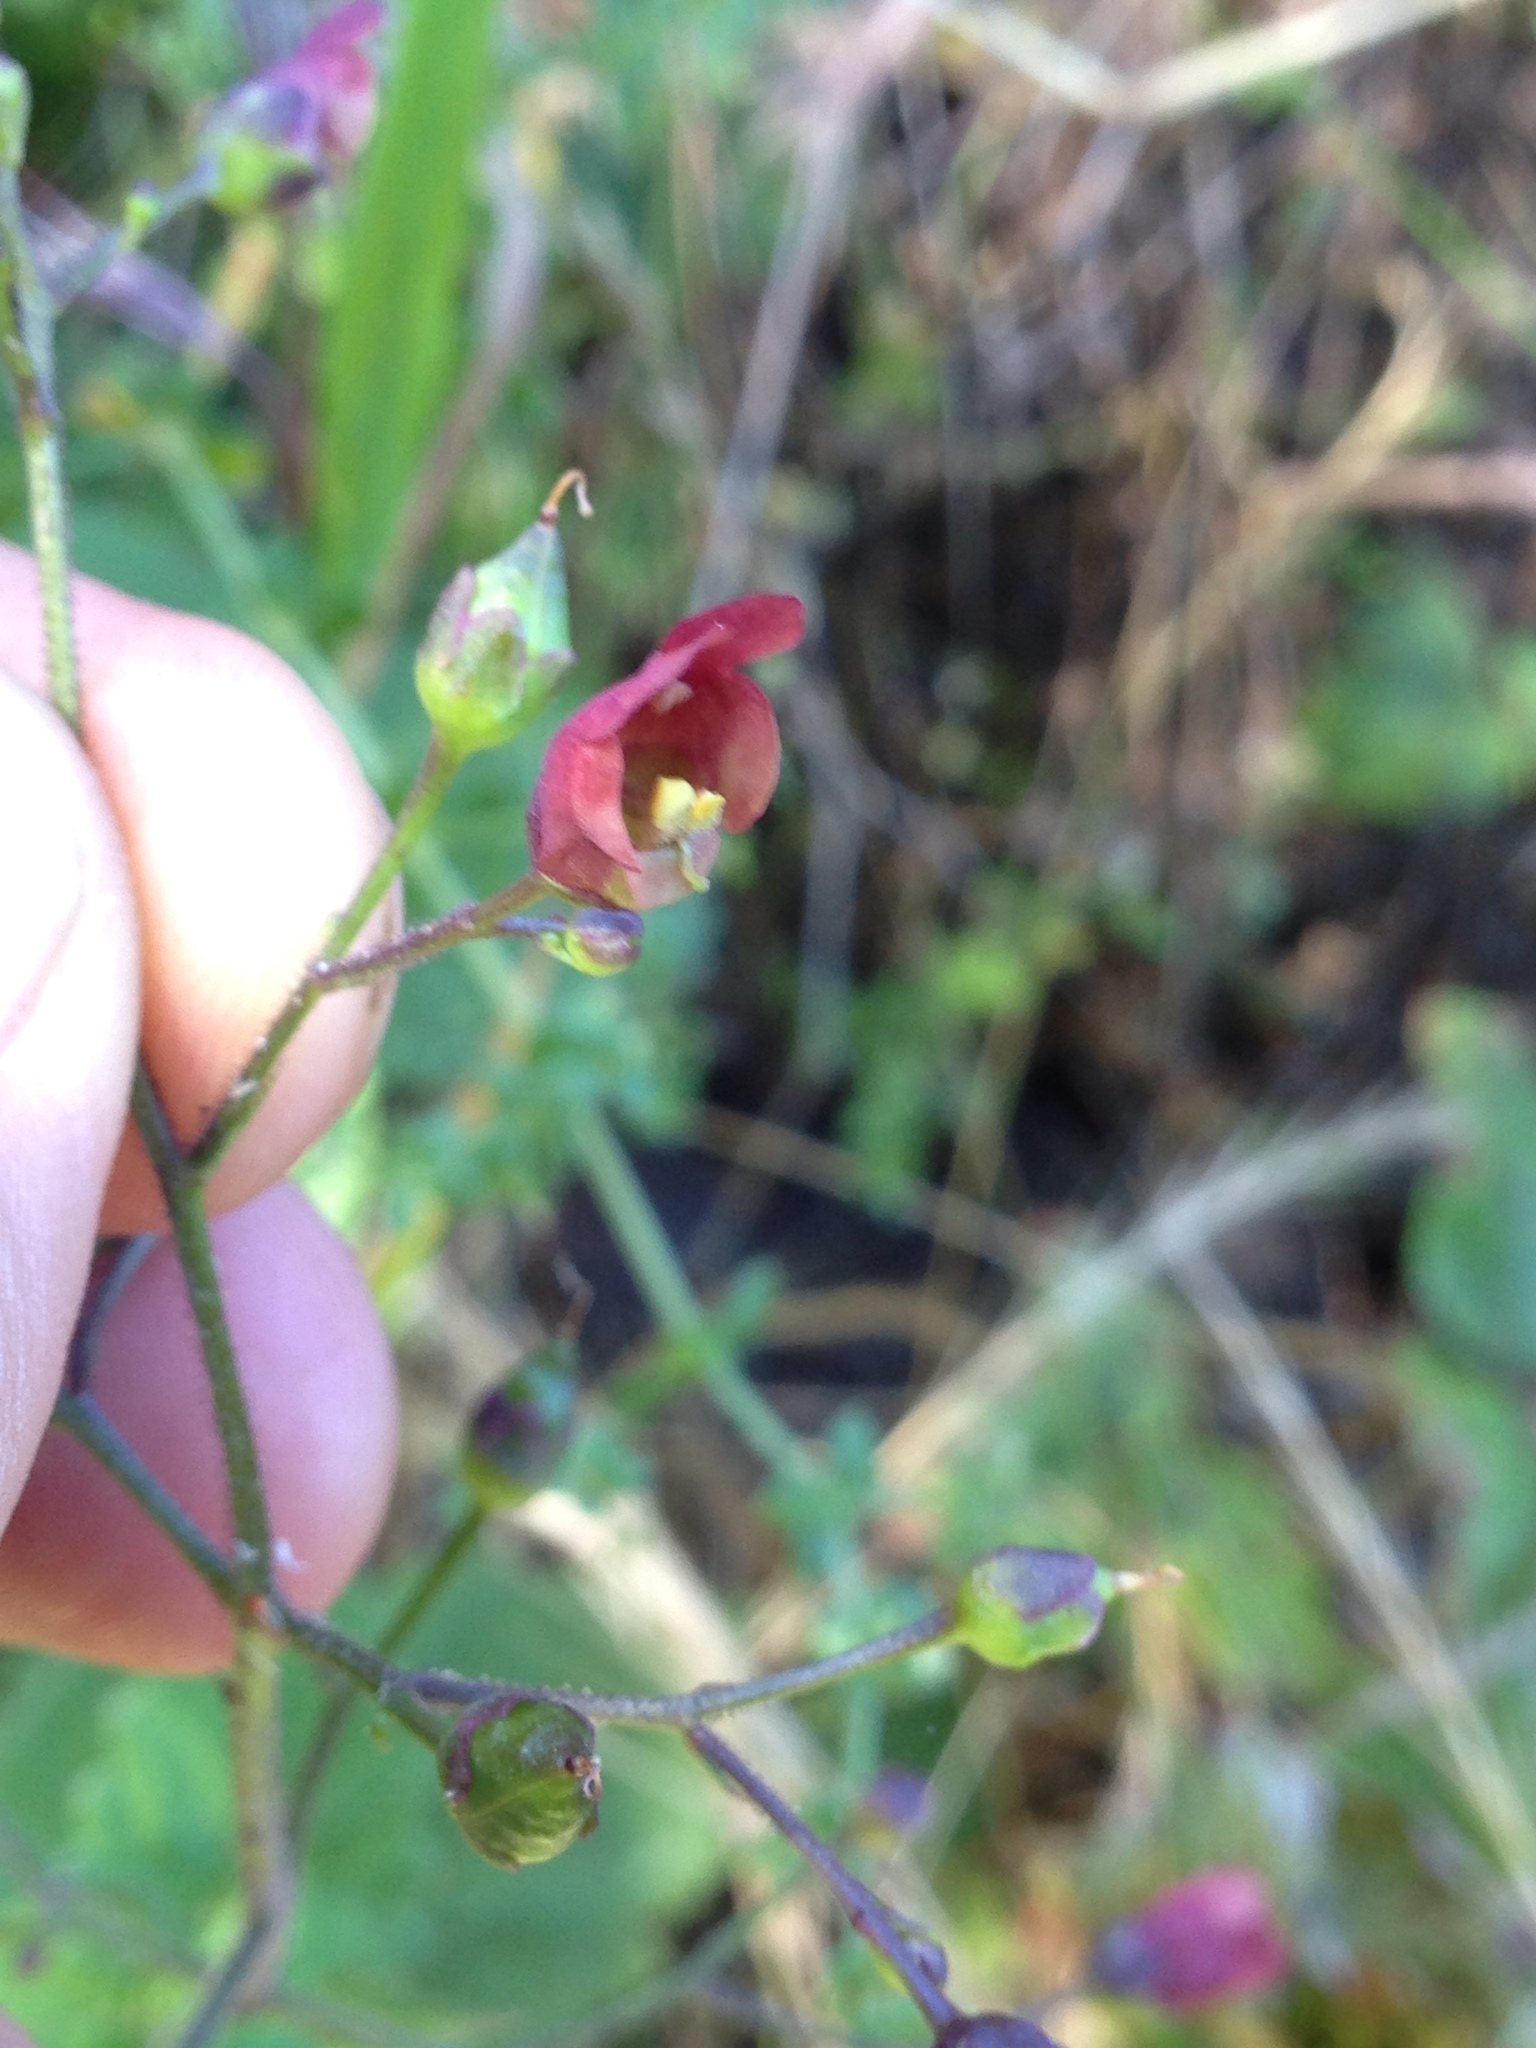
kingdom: Plantae
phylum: Tracheophyta
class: Magnoliopsida
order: Lamiales
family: Scrophulariaceae
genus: Scrophularia
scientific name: Scrophularia californica
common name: California figwort
